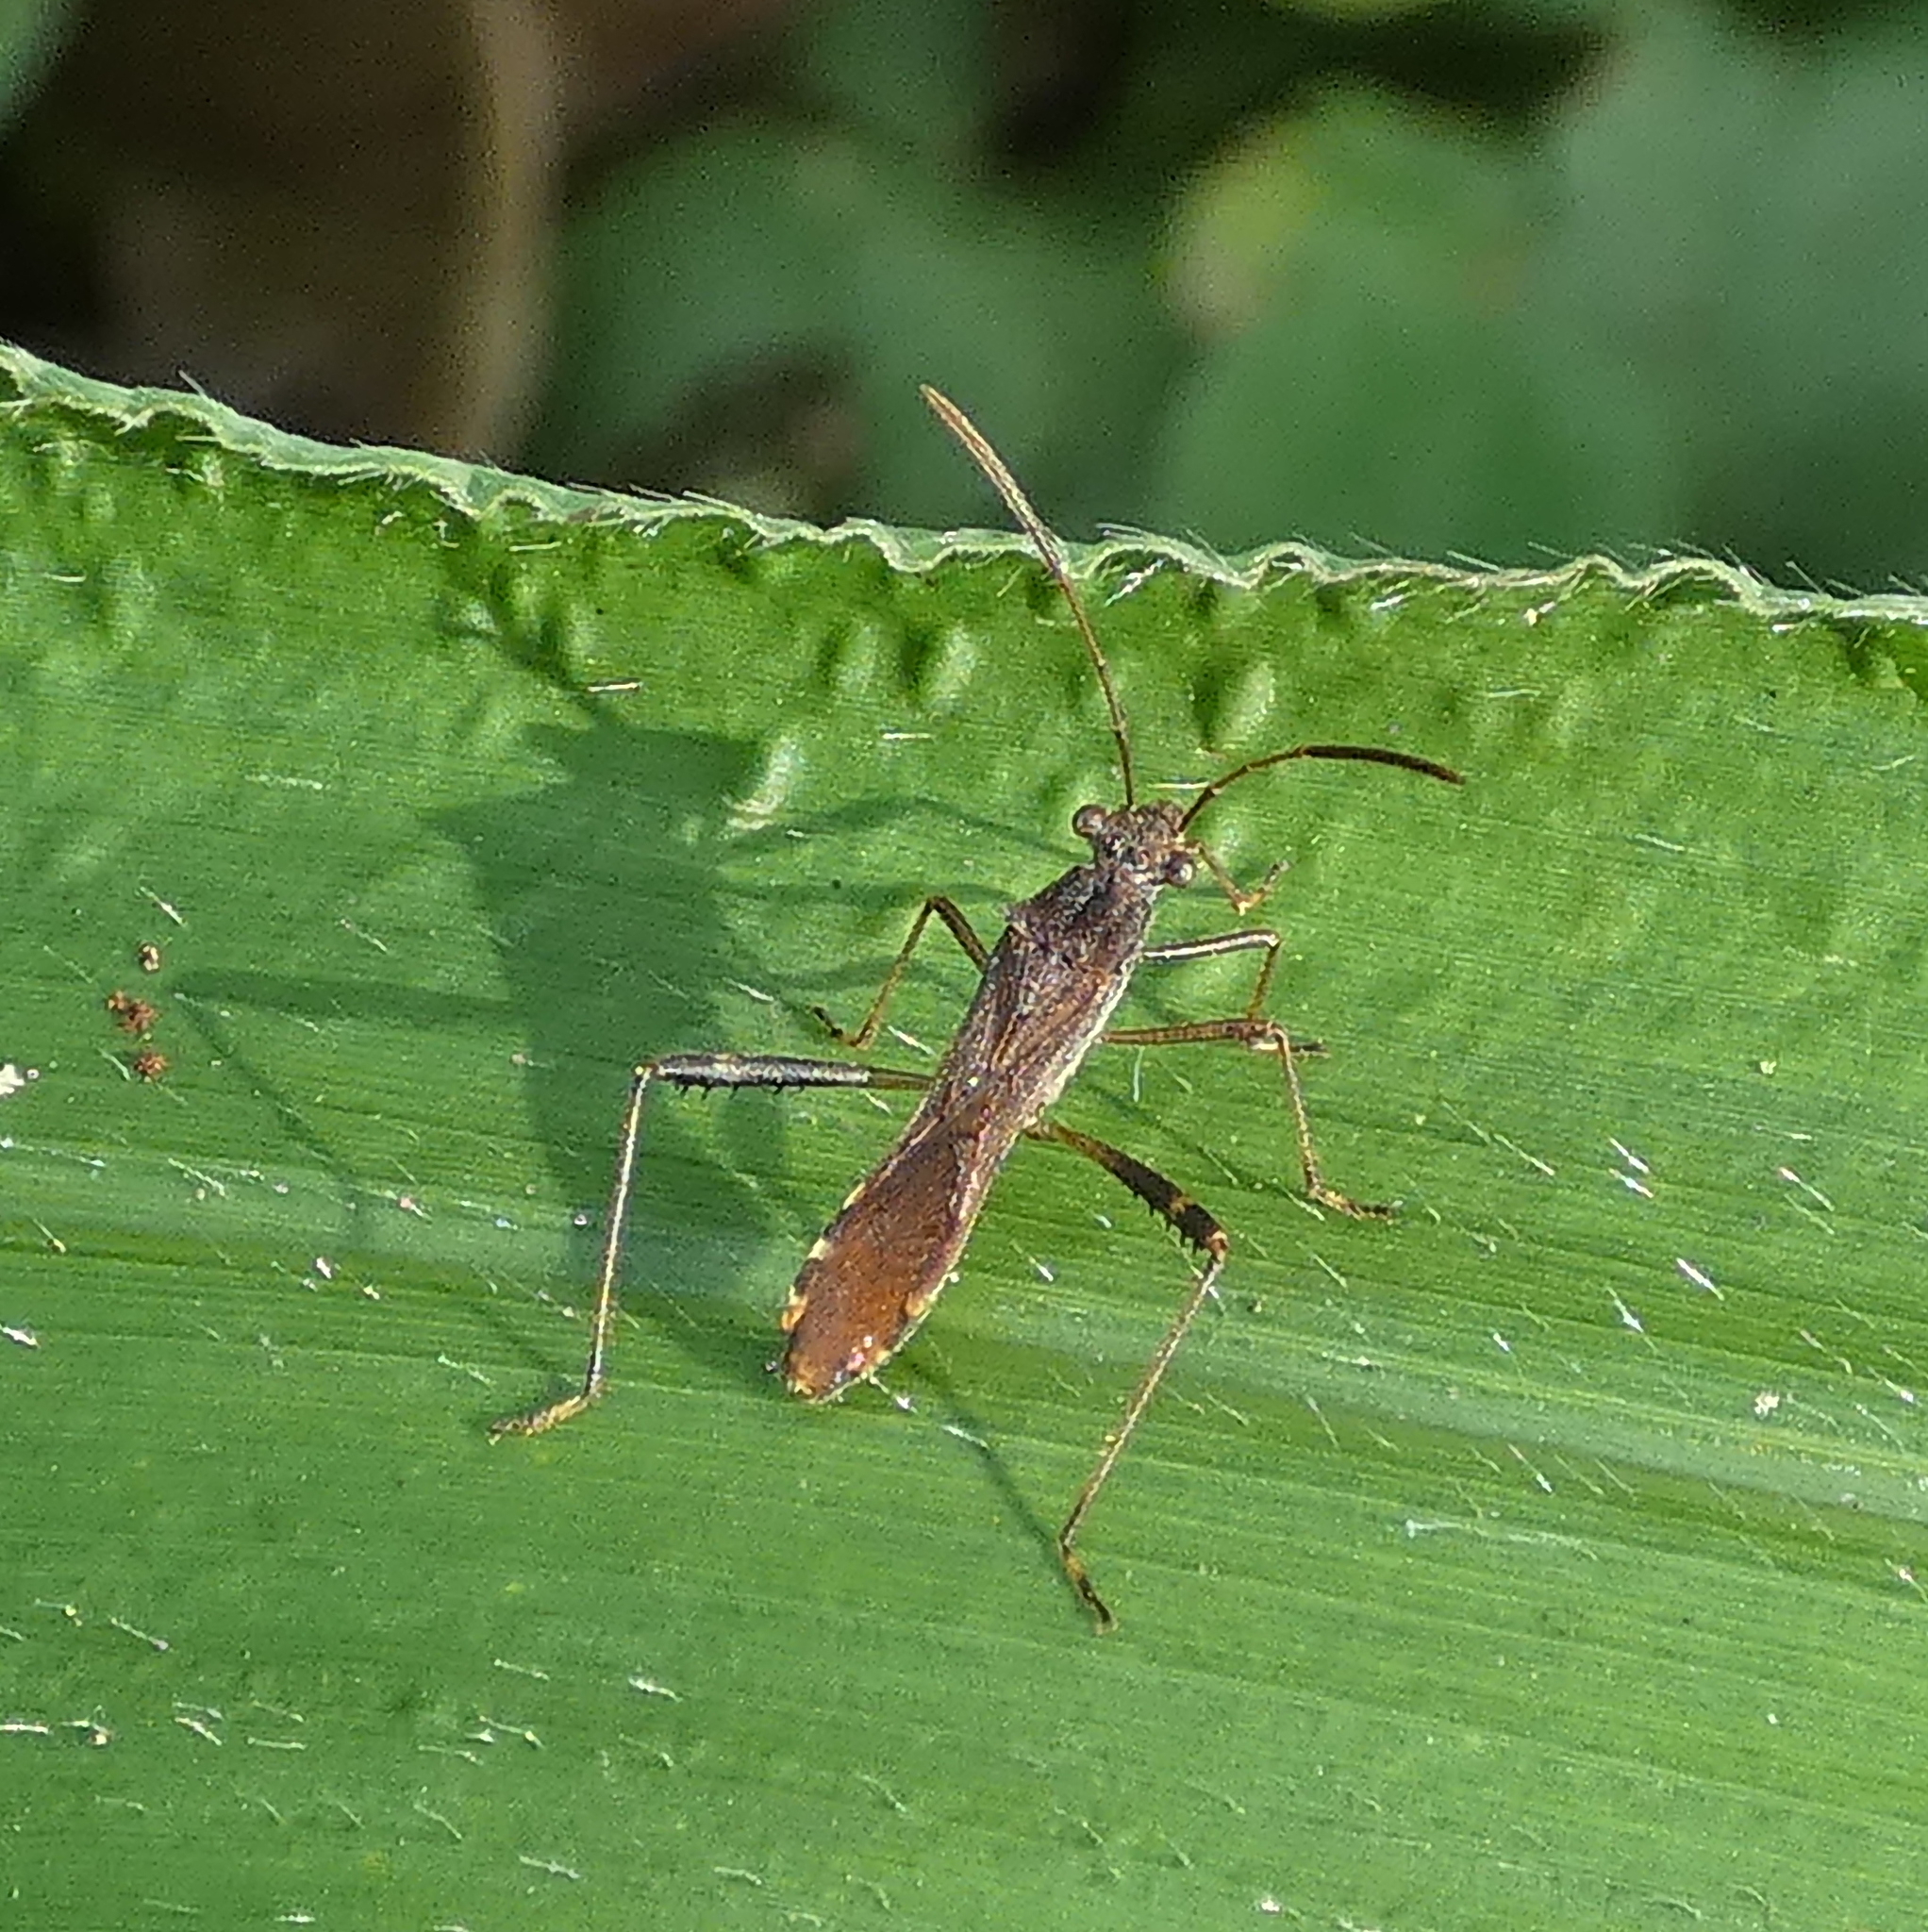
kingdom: Animalia
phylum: Arthropoda
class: Insecta
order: Hemiptera
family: Alydidae
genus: Neomegalotomus
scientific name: Neomegalotomus parvus
